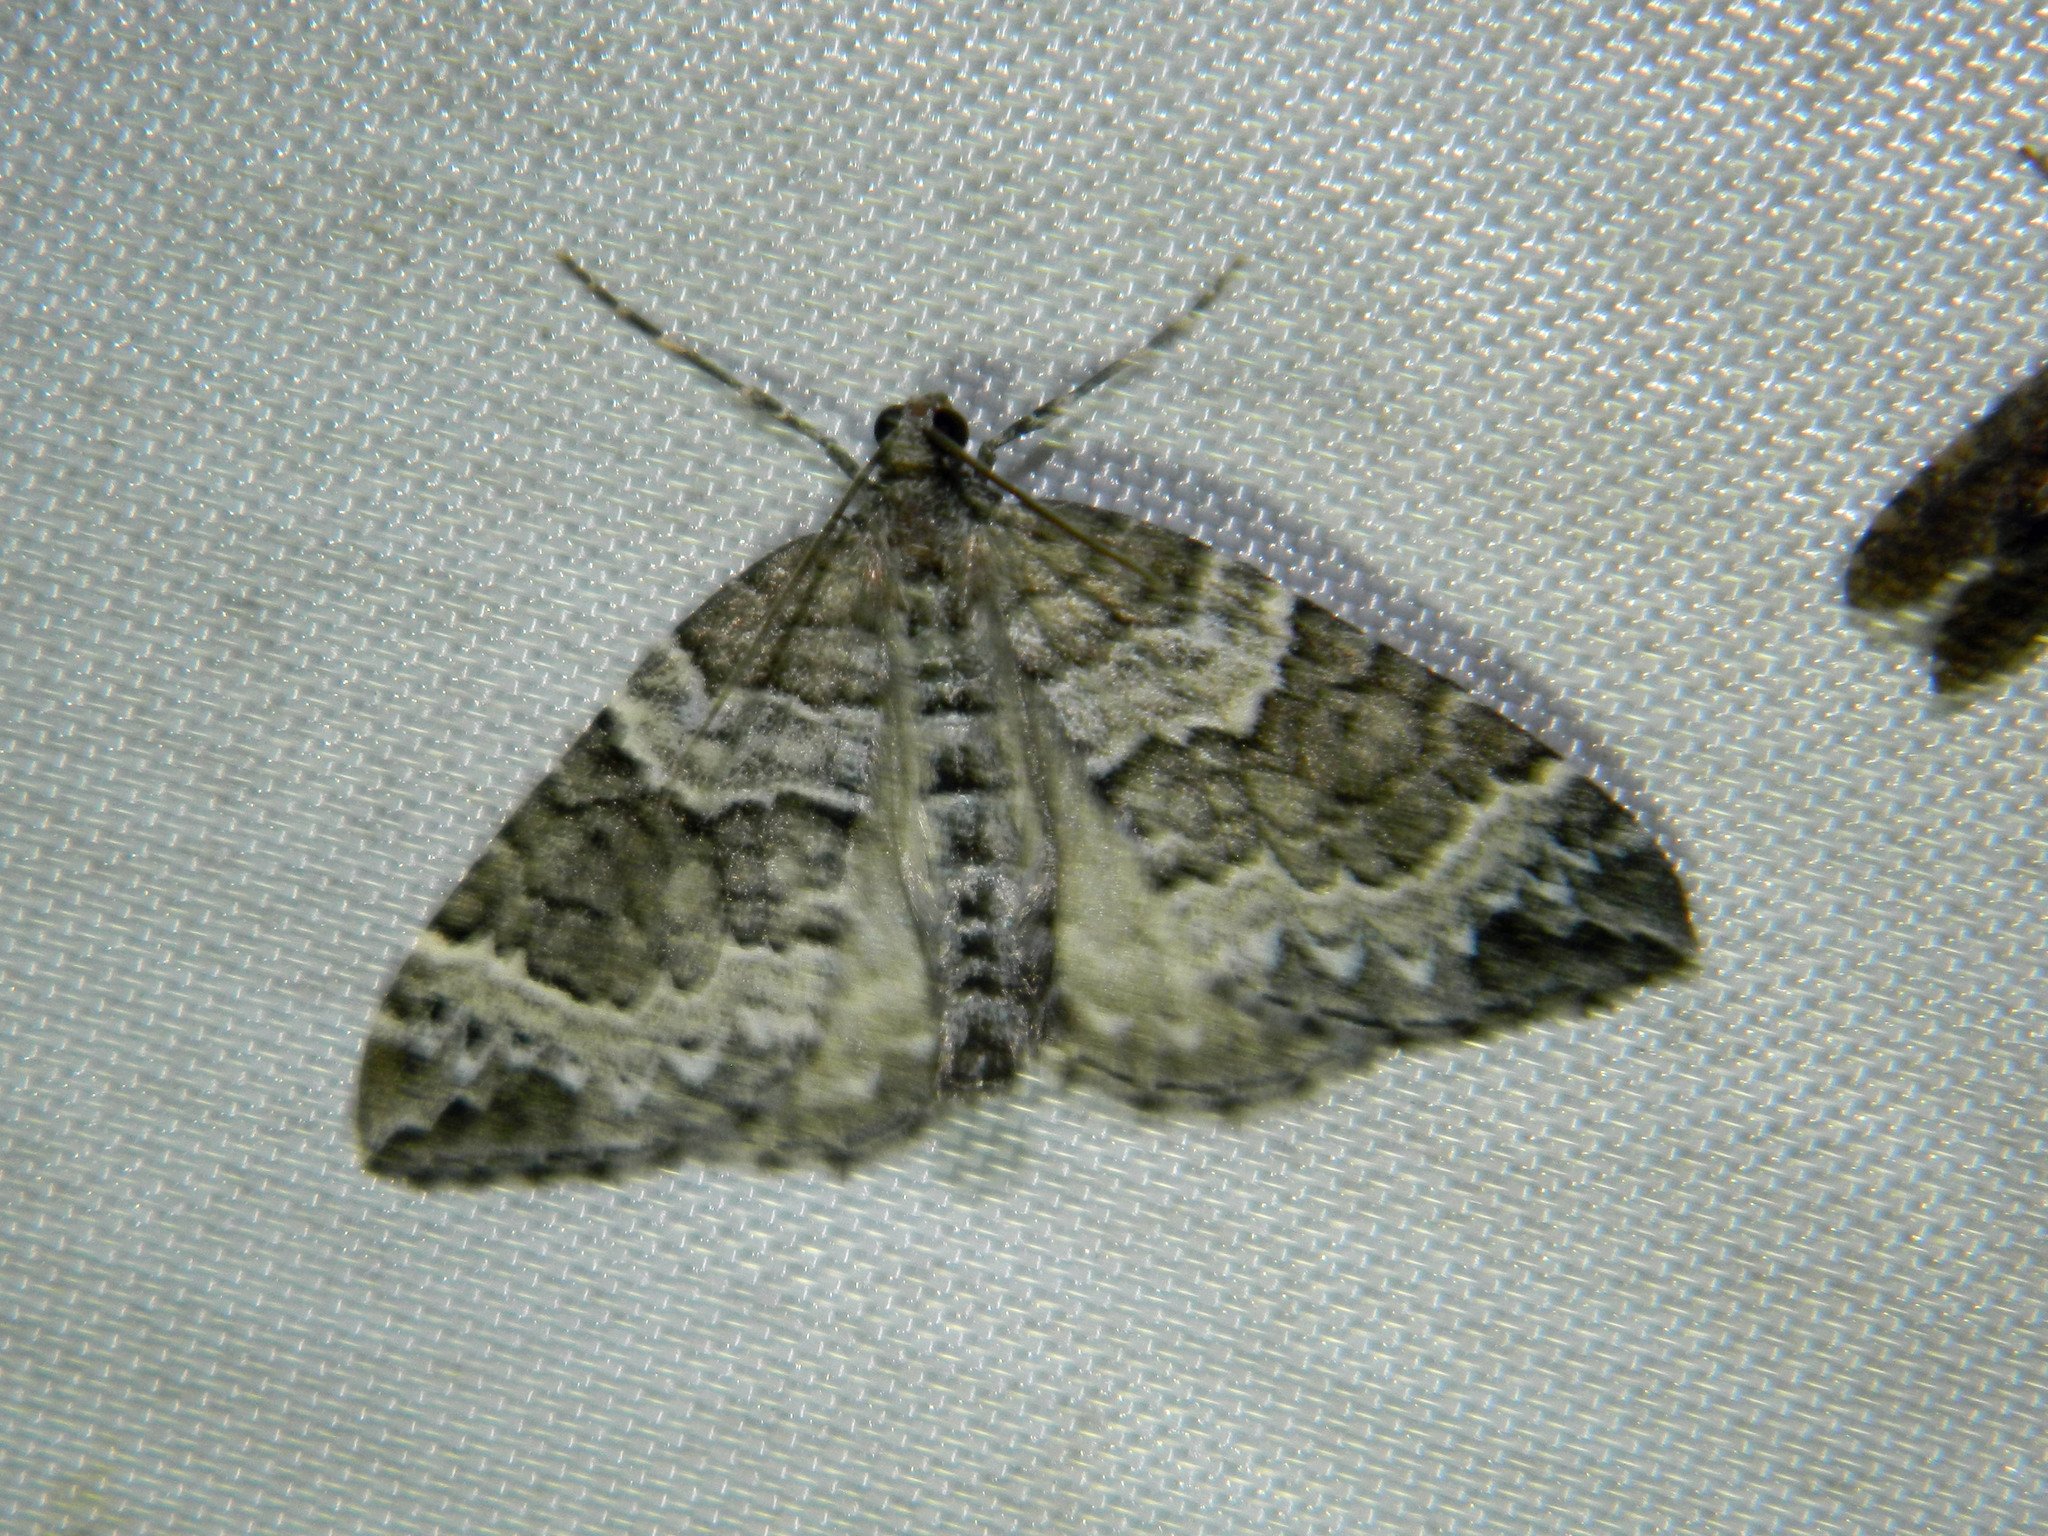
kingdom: Animalia
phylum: Arthropoda
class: Insecta
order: Lepidoptera
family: Geometridae
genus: Eulithis
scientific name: Eulithis explanata
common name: White eulithis
